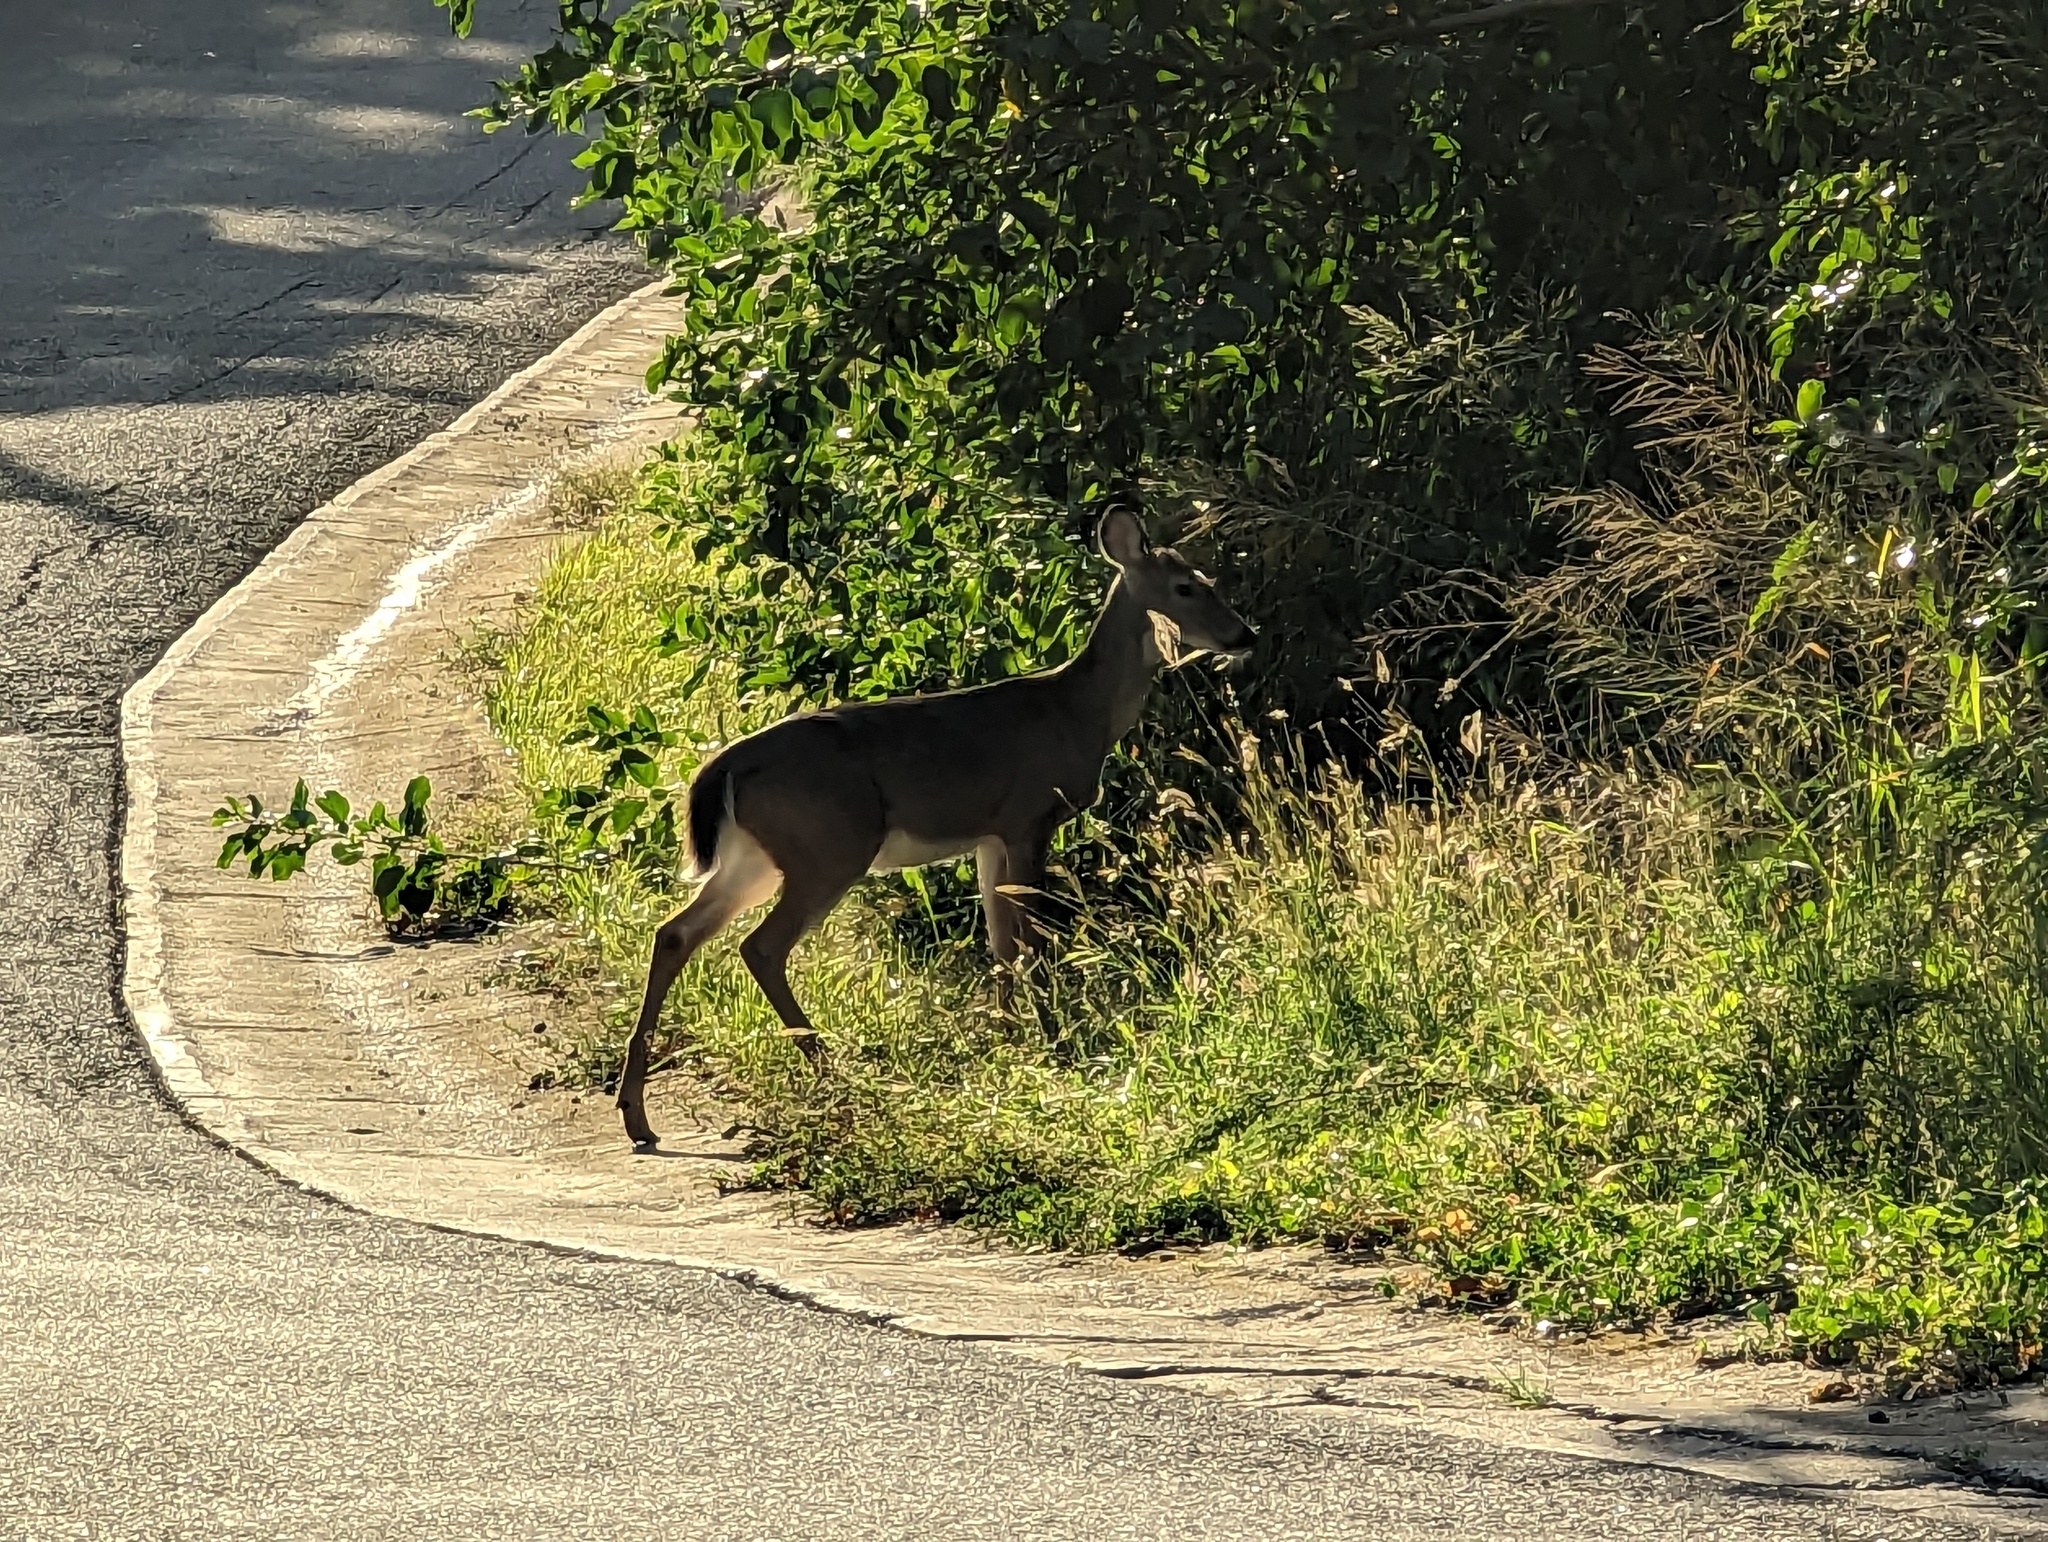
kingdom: Animalia
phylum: Chordata
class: Mammalia
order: Artiodactyla
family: Cervidae
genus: Odocoileus
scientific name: Odocoileus virginianus
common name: White-tailed deer
